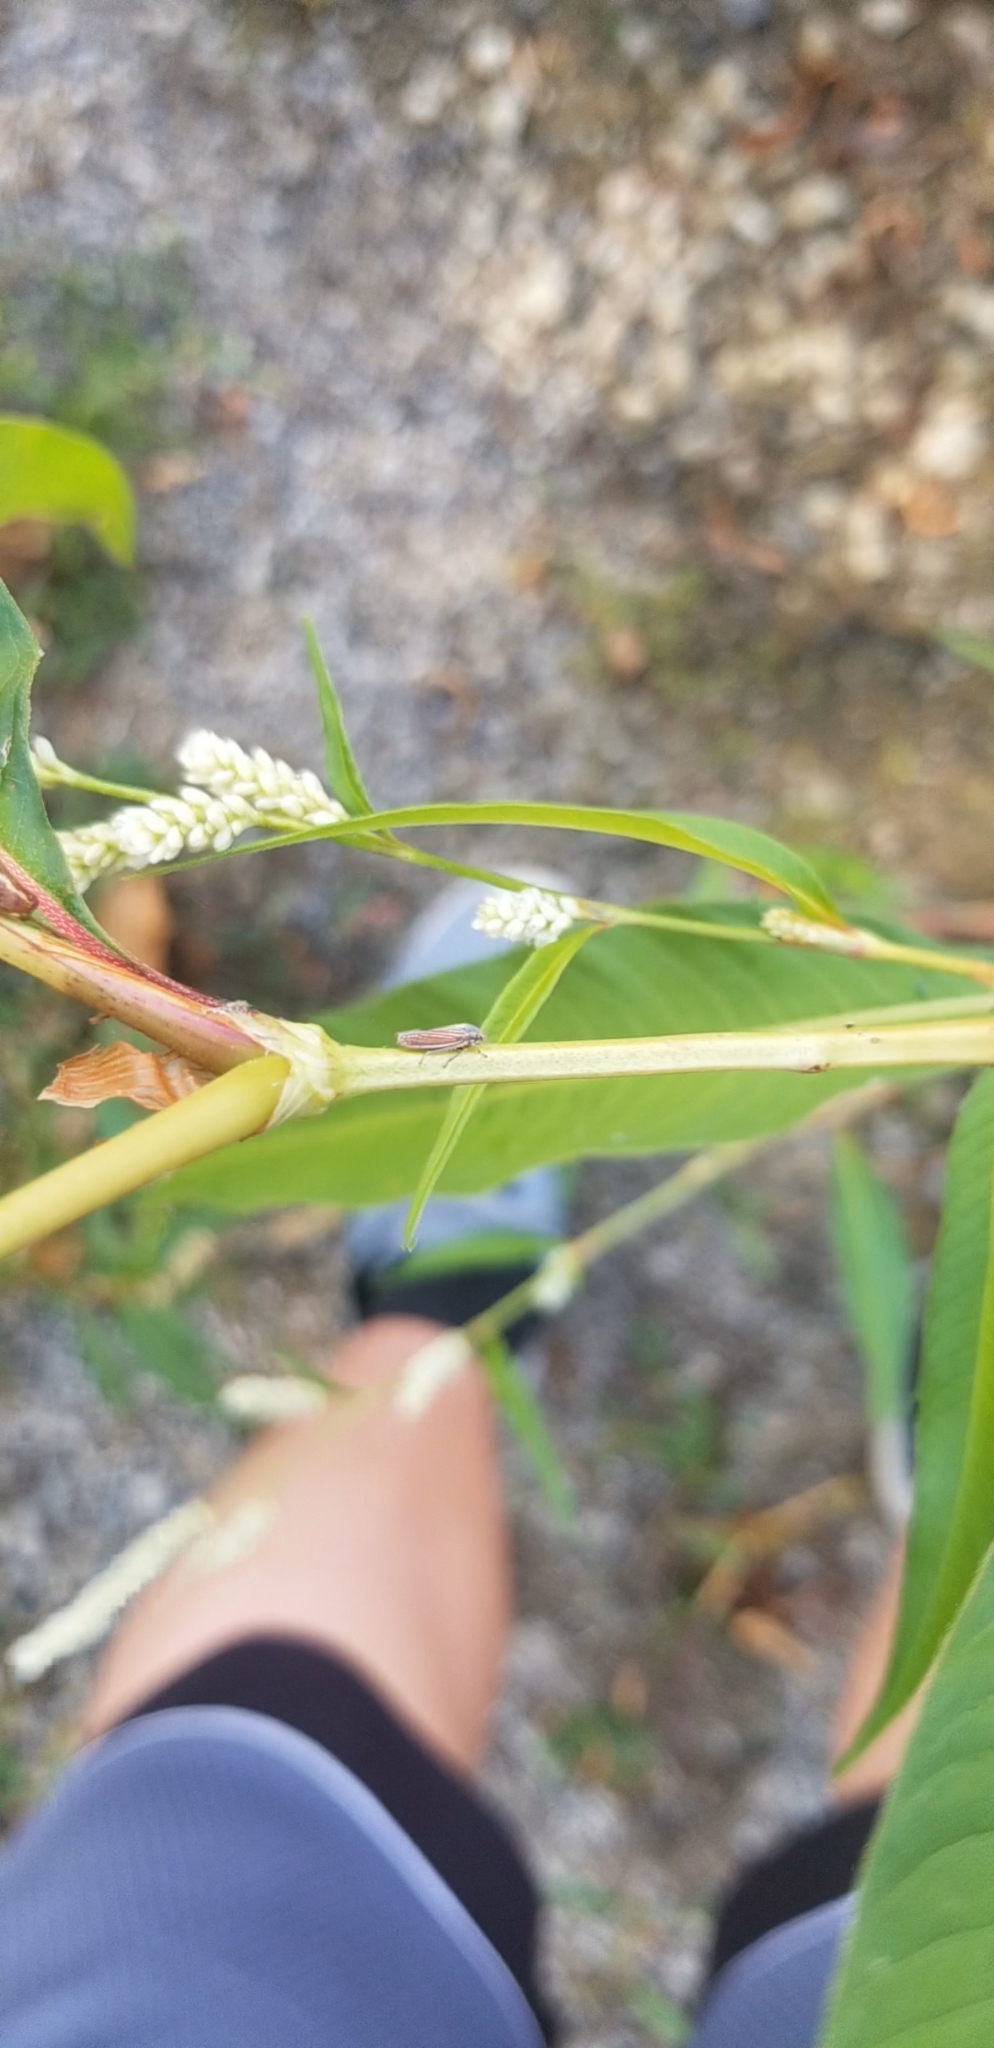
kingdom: Animalia
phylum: Arthropoda
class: Insecta
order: Hemiptera
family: Cicadellidae
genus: Neokolla
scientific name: Neokolla hieroglyphica
